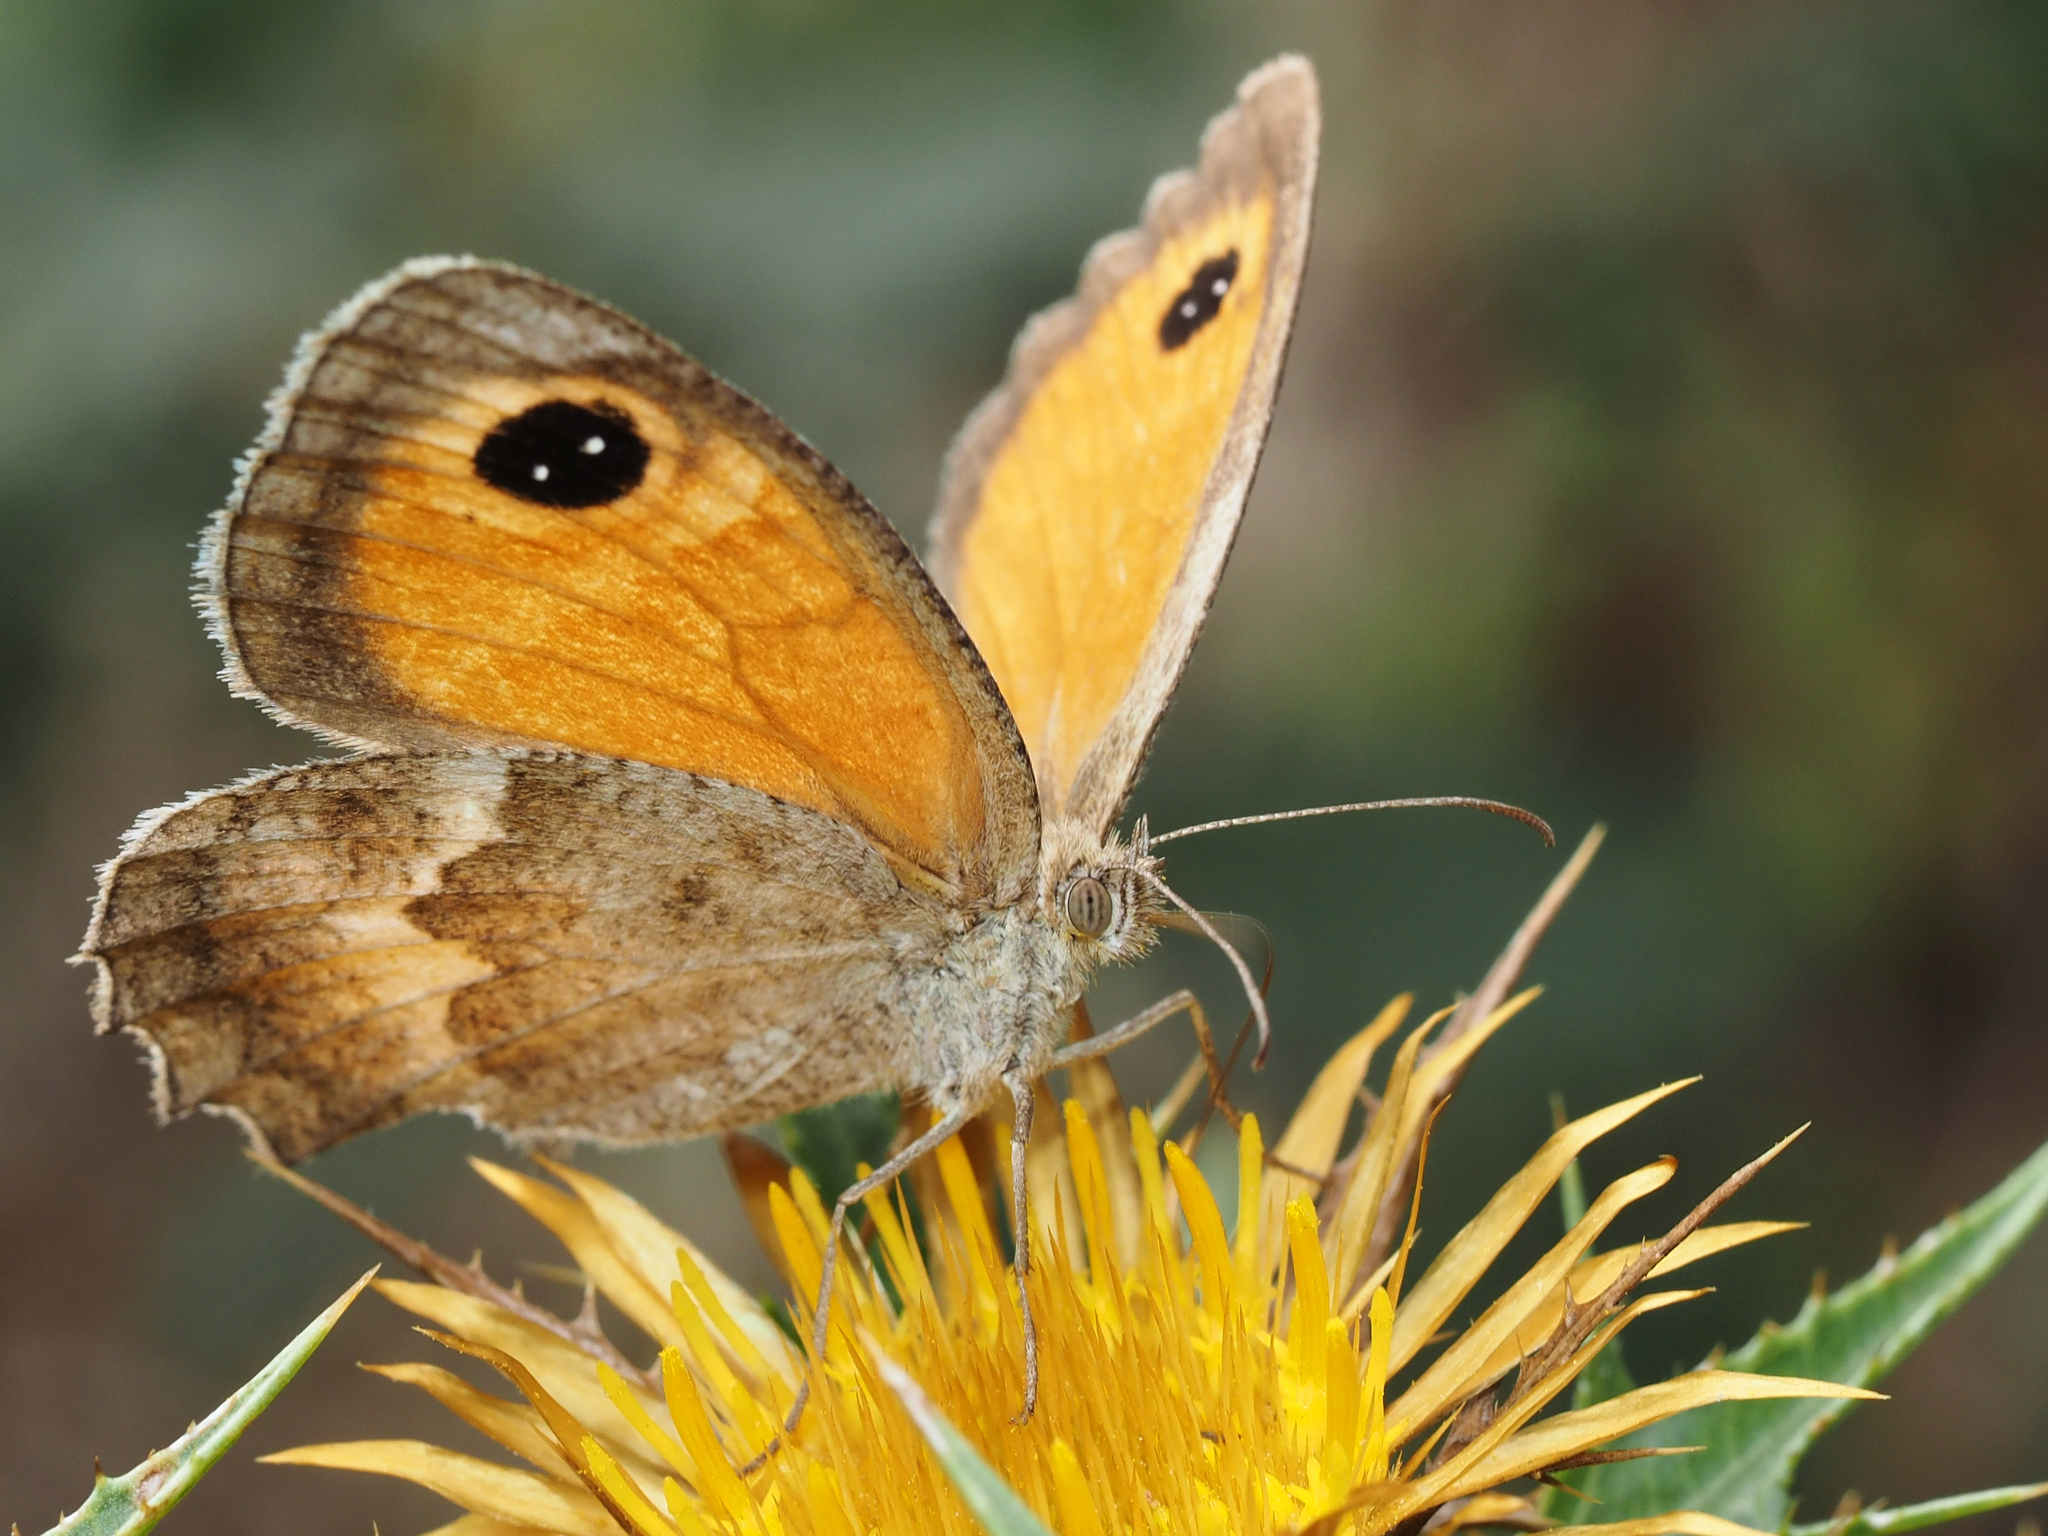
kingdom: Animalia
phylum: Arthropoda
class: Insecta
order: Lepidoptera
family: Nymphalidae
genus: Pyronia
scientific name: Pyronia cecilia
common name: Southern gatekeeper
